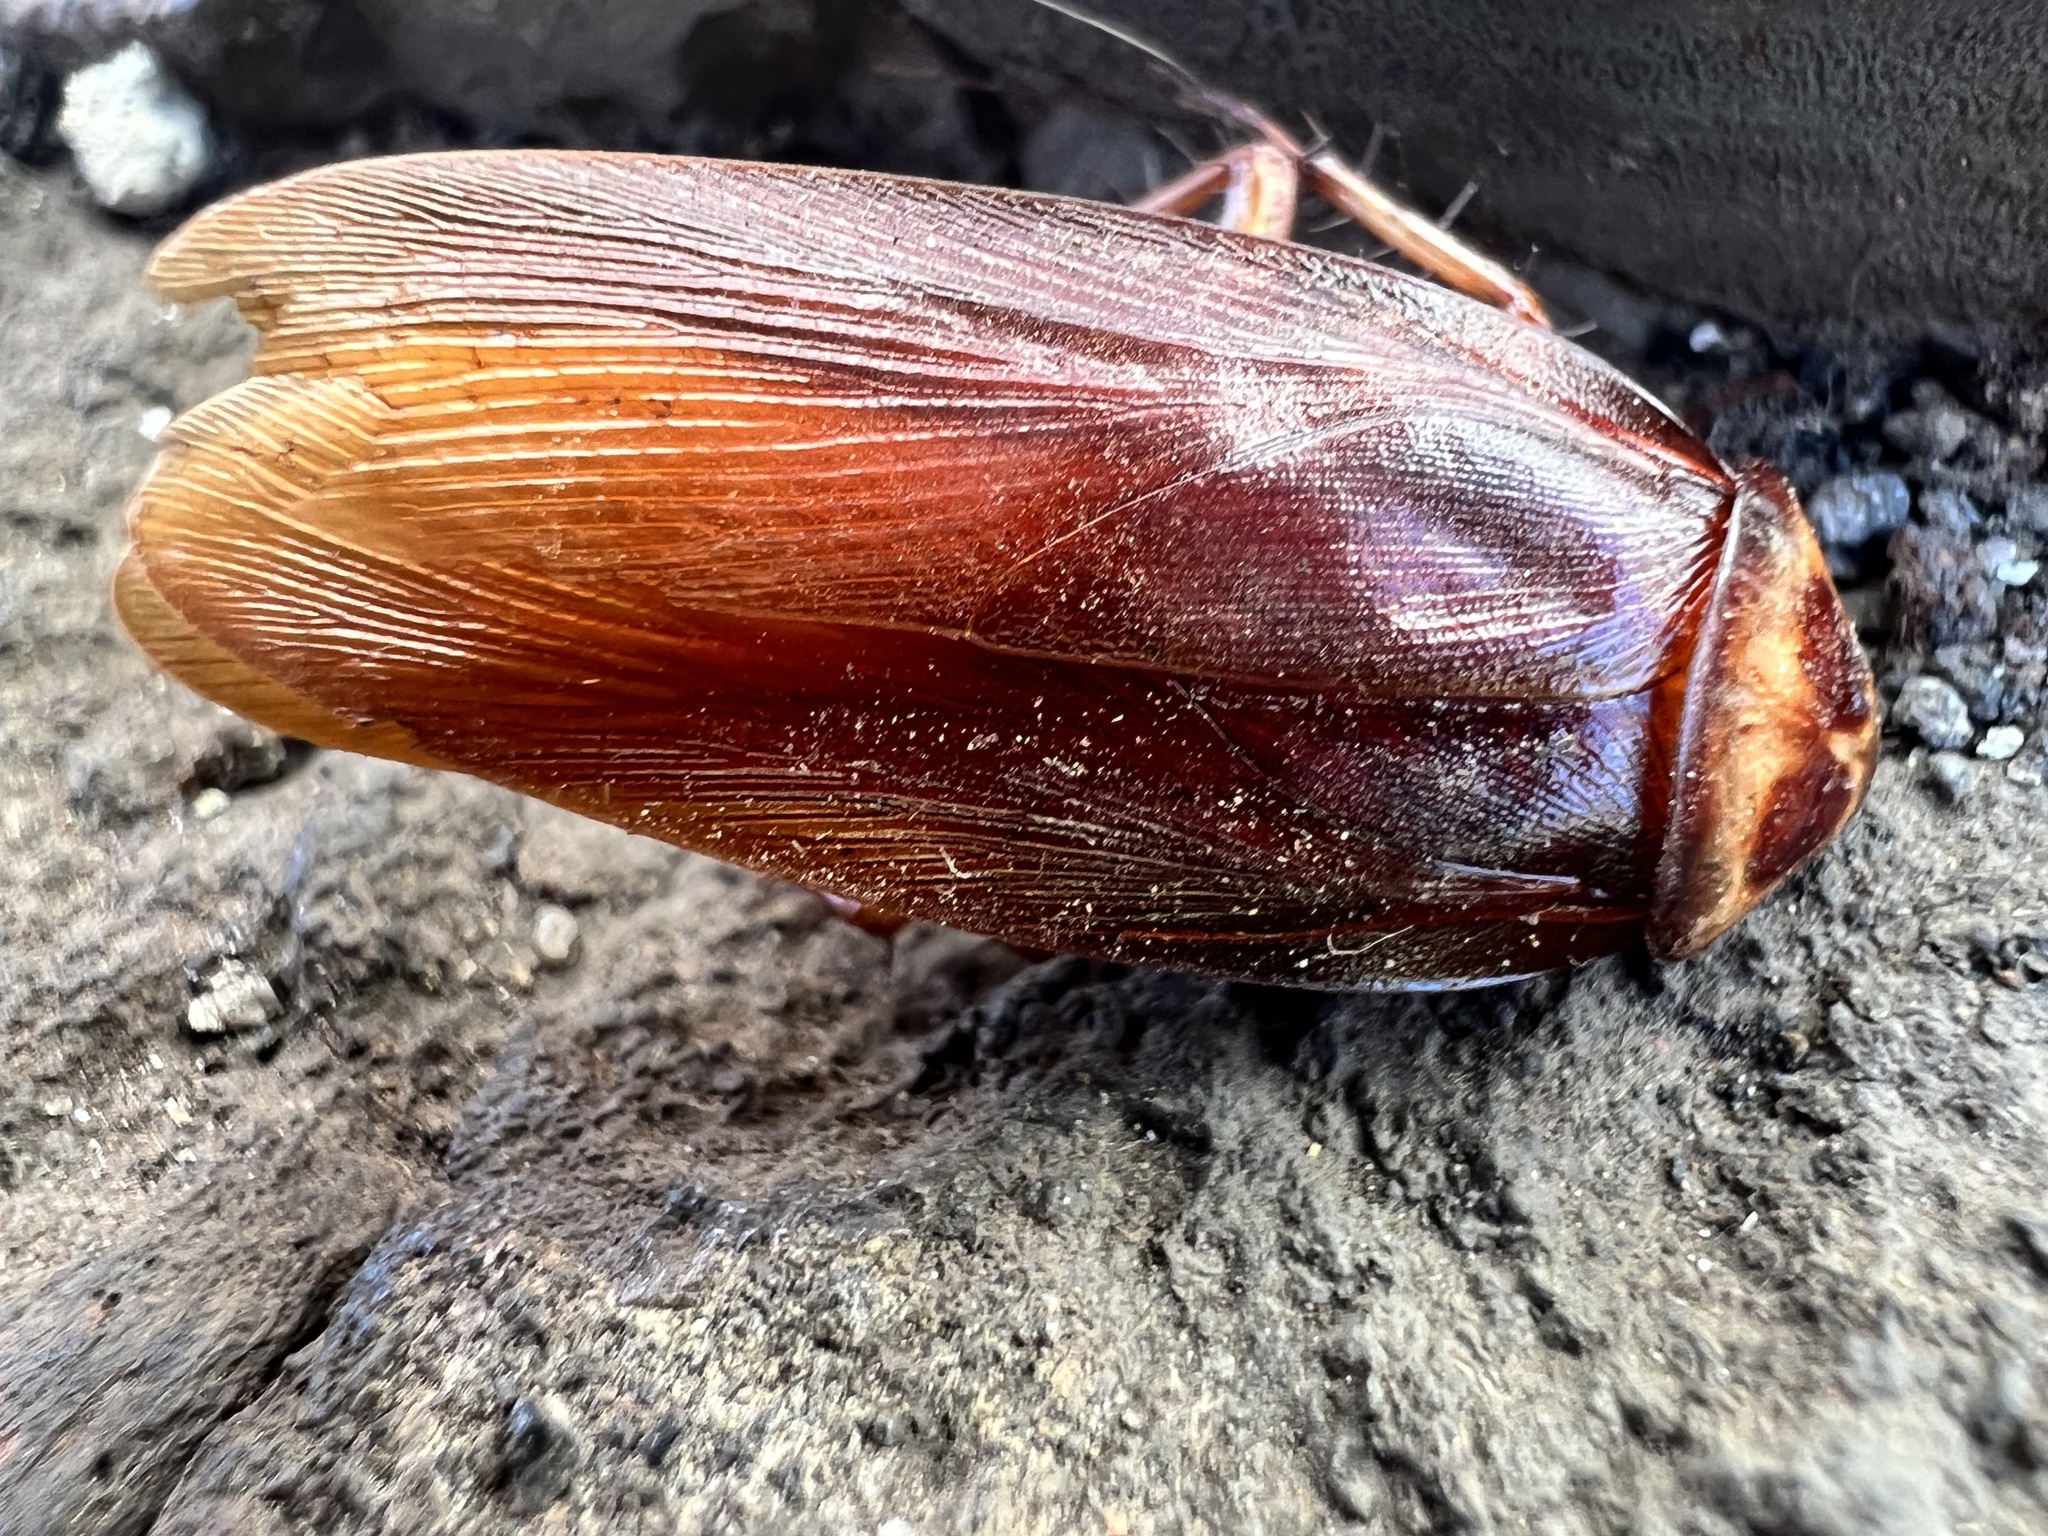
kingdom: Animalia
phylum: Arthropoda
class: Insecta
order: Blattodea
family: Blattidae
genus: Periplaneta
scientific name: Periplaneta americana
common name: American cockroach
